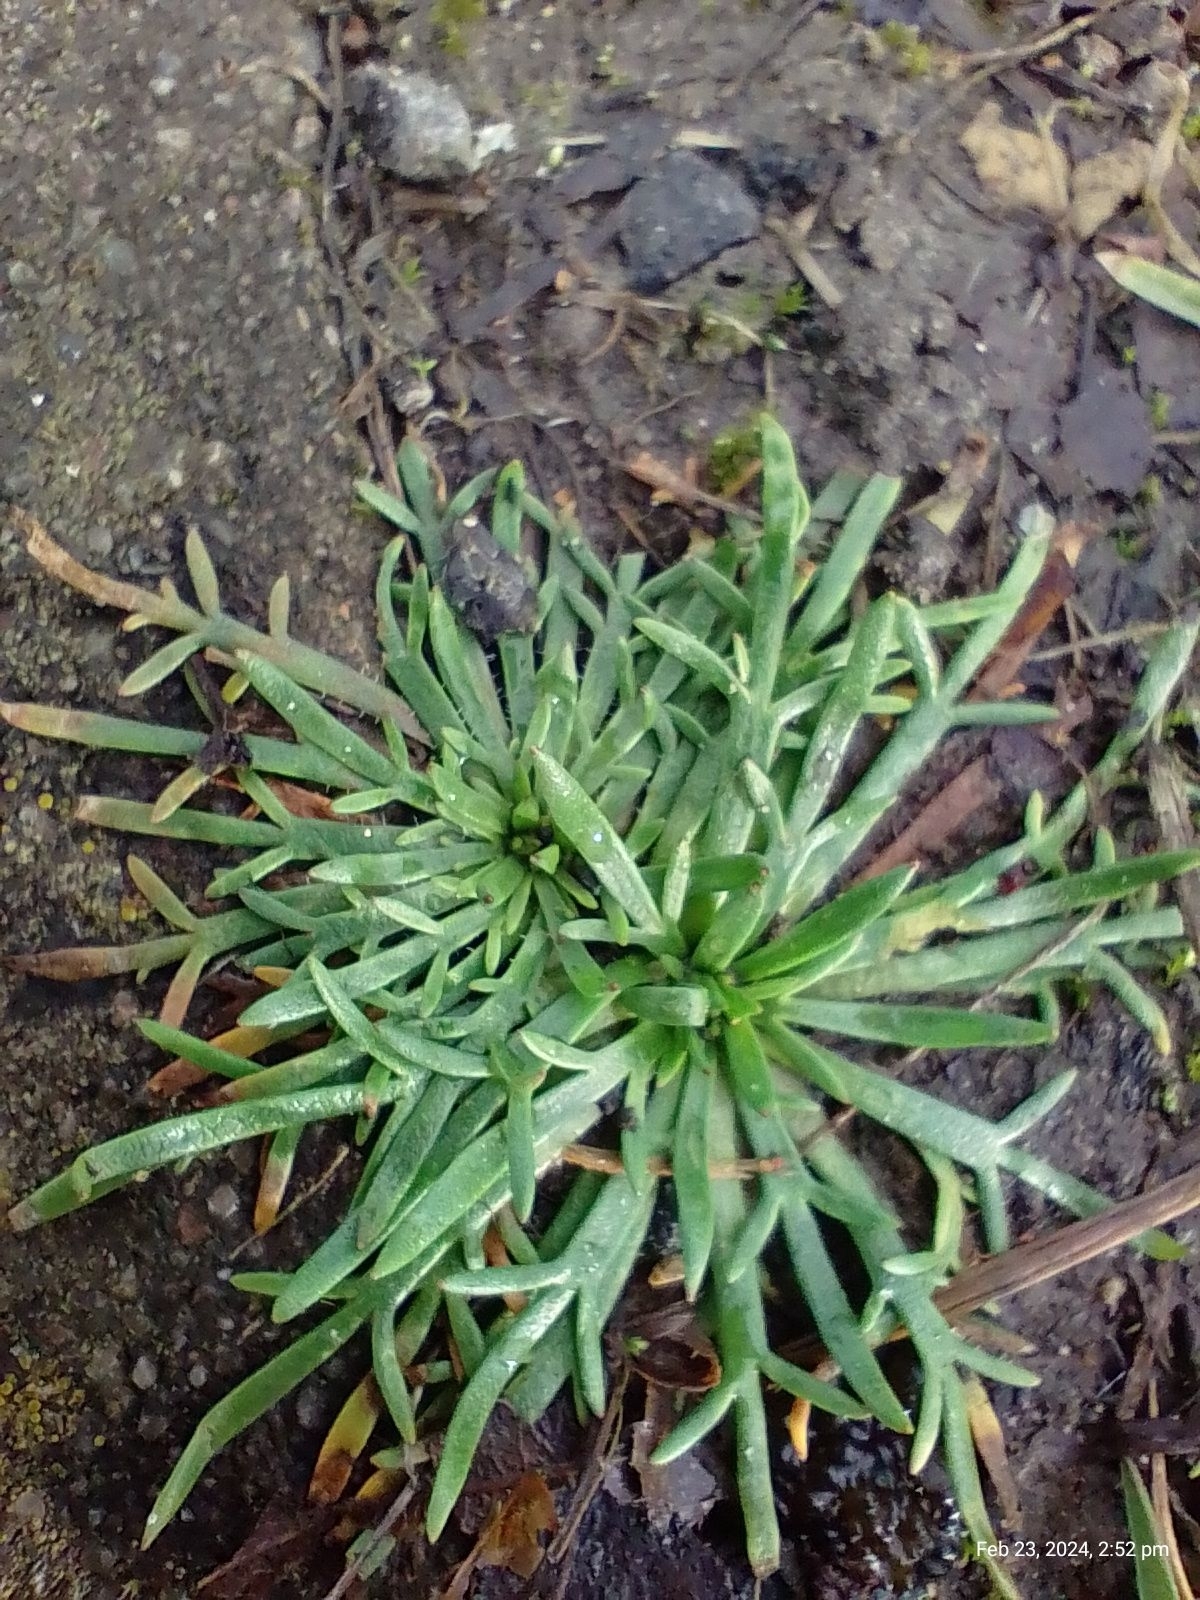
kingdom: Plantae
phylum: Tracheophyta
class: Magnoliopsida
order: Lamiales
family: Plantaginaceae
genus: Plantago
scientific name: Plantago coronopus
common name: Buck's-horn plantain
